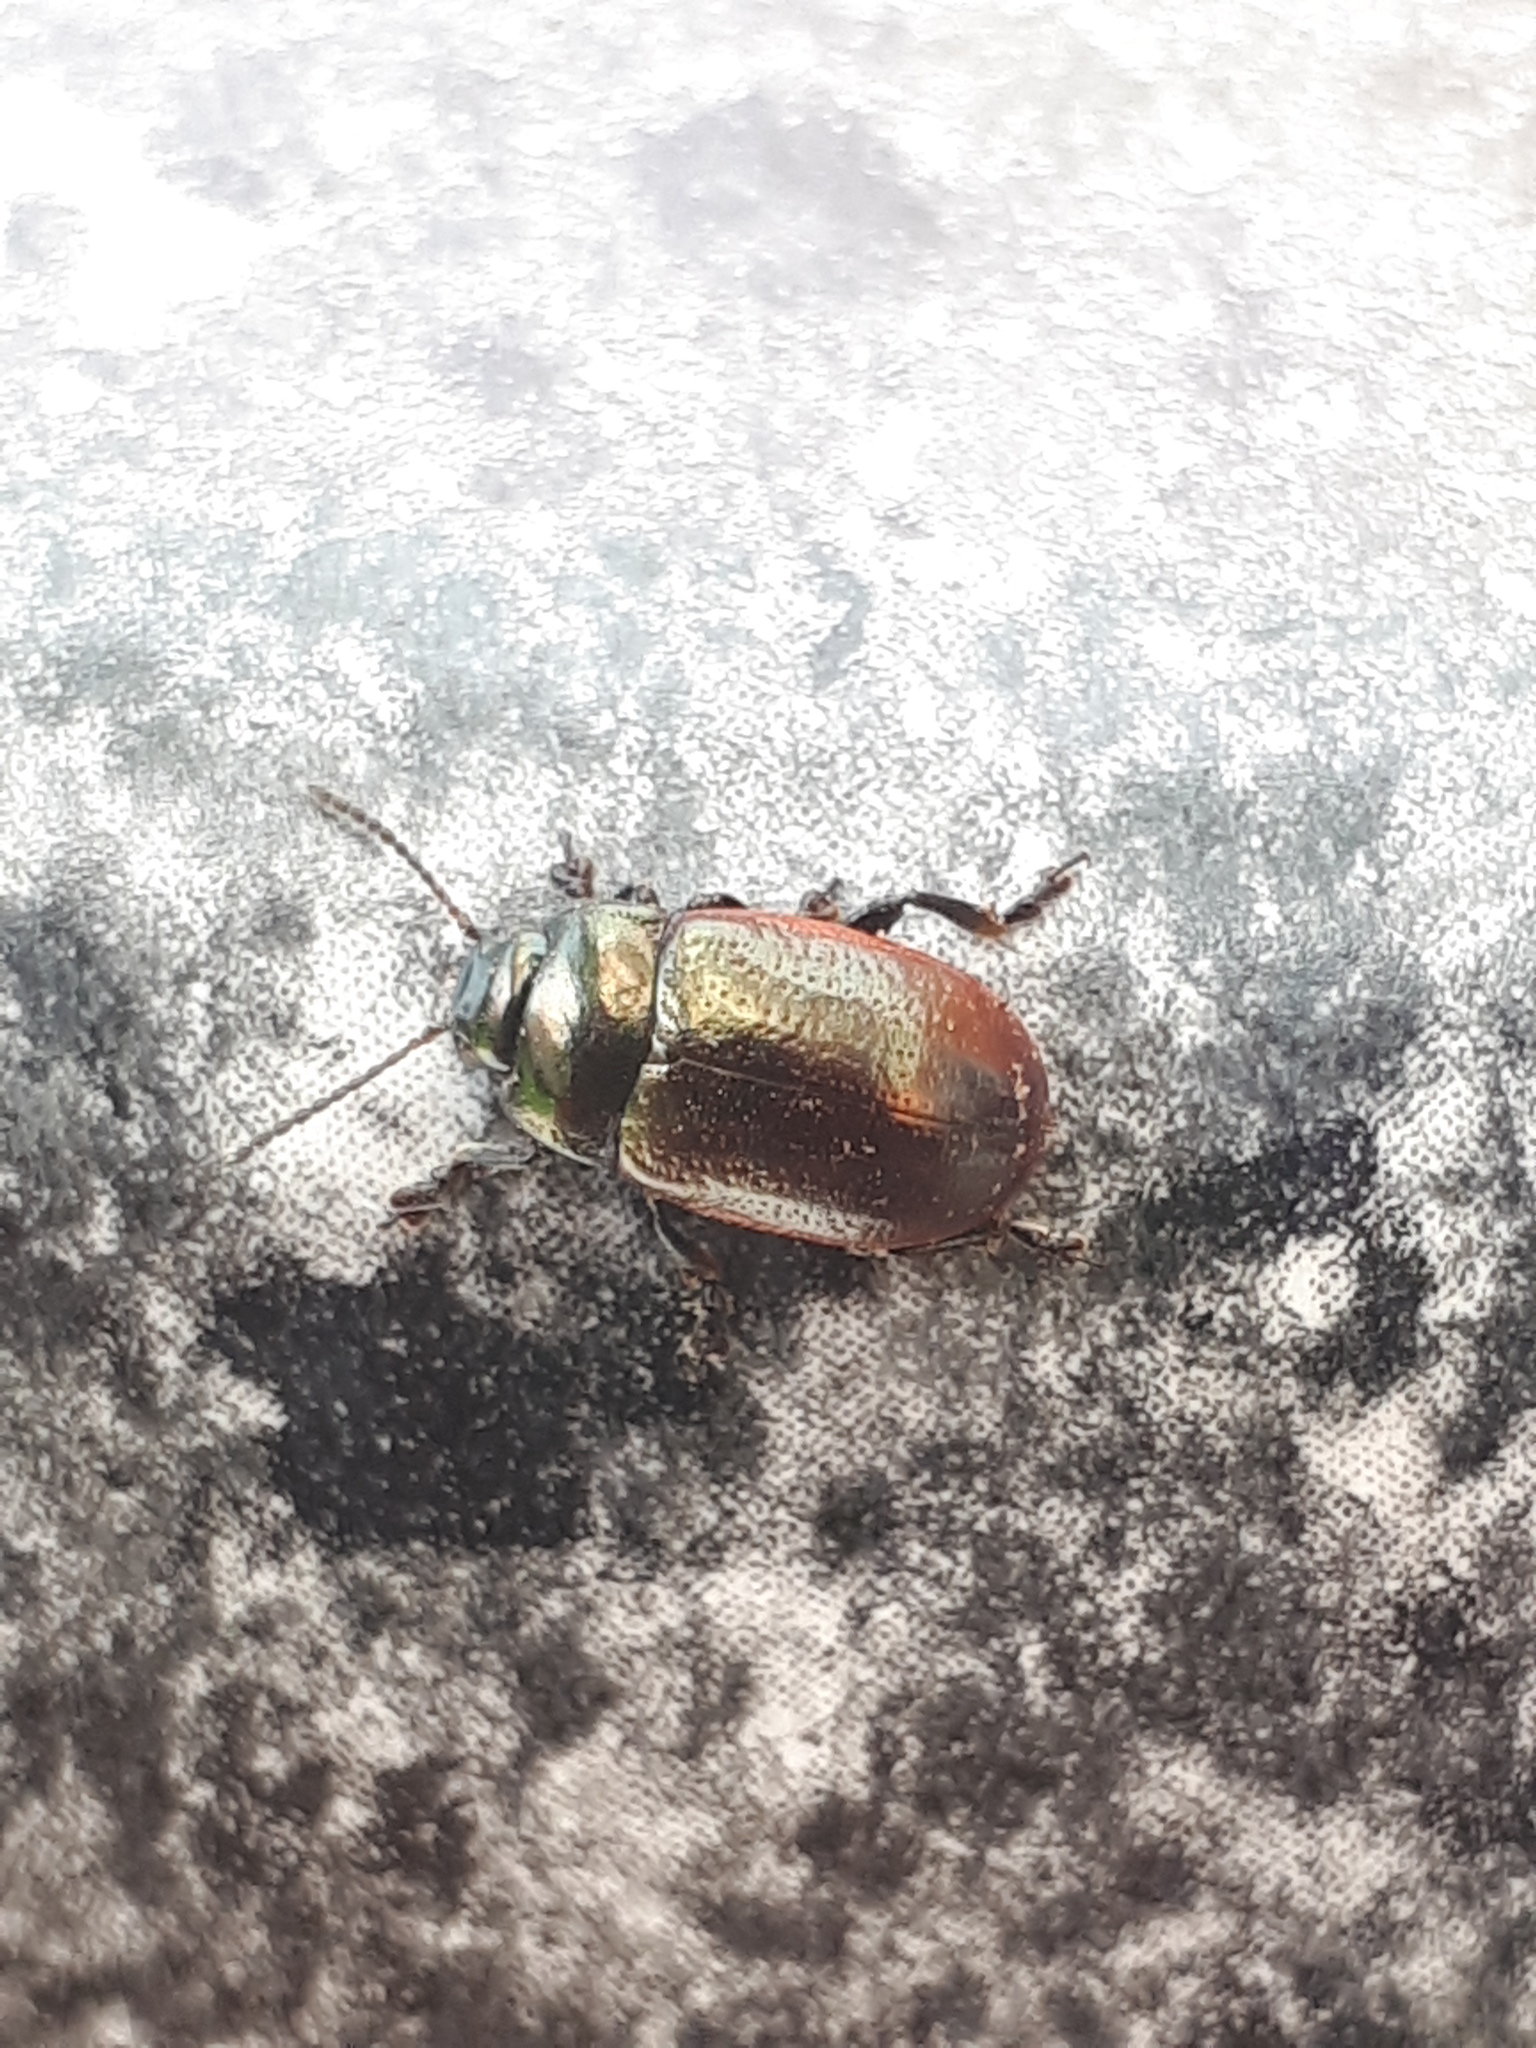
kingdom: Animalia
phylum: Arthropoda
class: Insecta
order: Coleoptera
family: Chrysomelidae
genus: Chrysolina
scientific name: Chrysolina marginata
